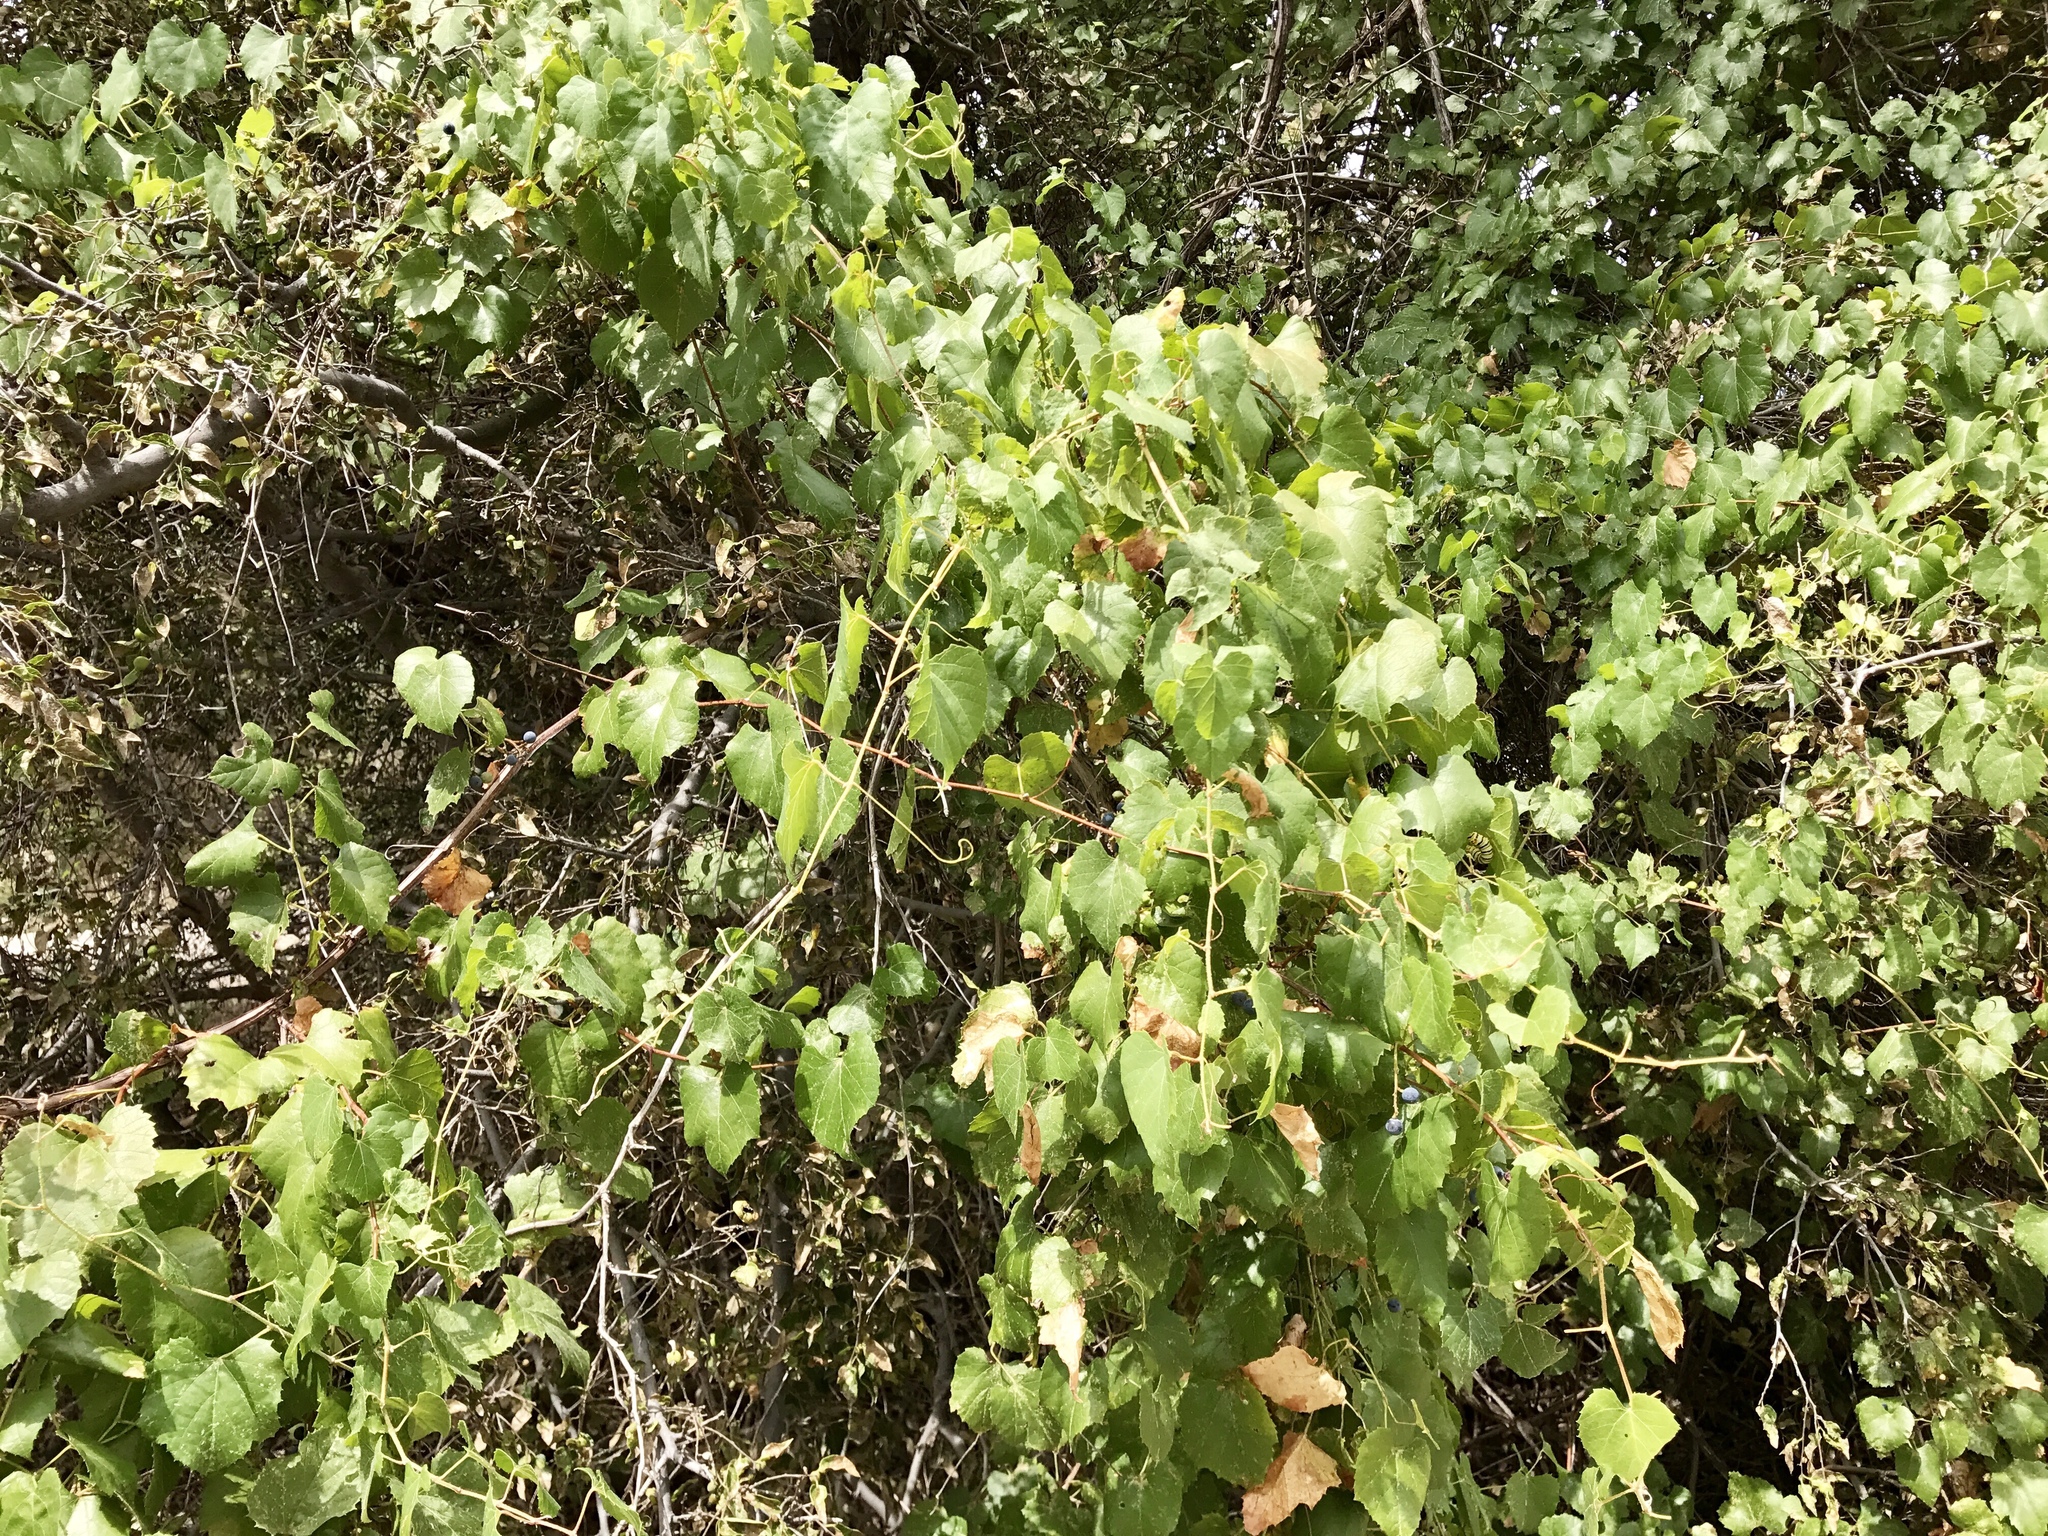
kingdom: Plantae
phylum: Tracheophyta
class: Magnoliopsida
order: Vitales
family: Vitaceae
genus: Vitis
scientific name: Vitis arizonica
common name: Canyon grape
